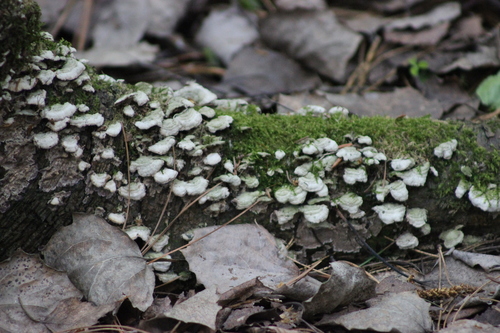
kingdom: Fungi
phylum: Basidiomycota
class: Agaricomycetes
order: Hymenochaetales
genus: Trichaptum
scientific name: Trichaptum abietinum
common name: Purplepore bracket
